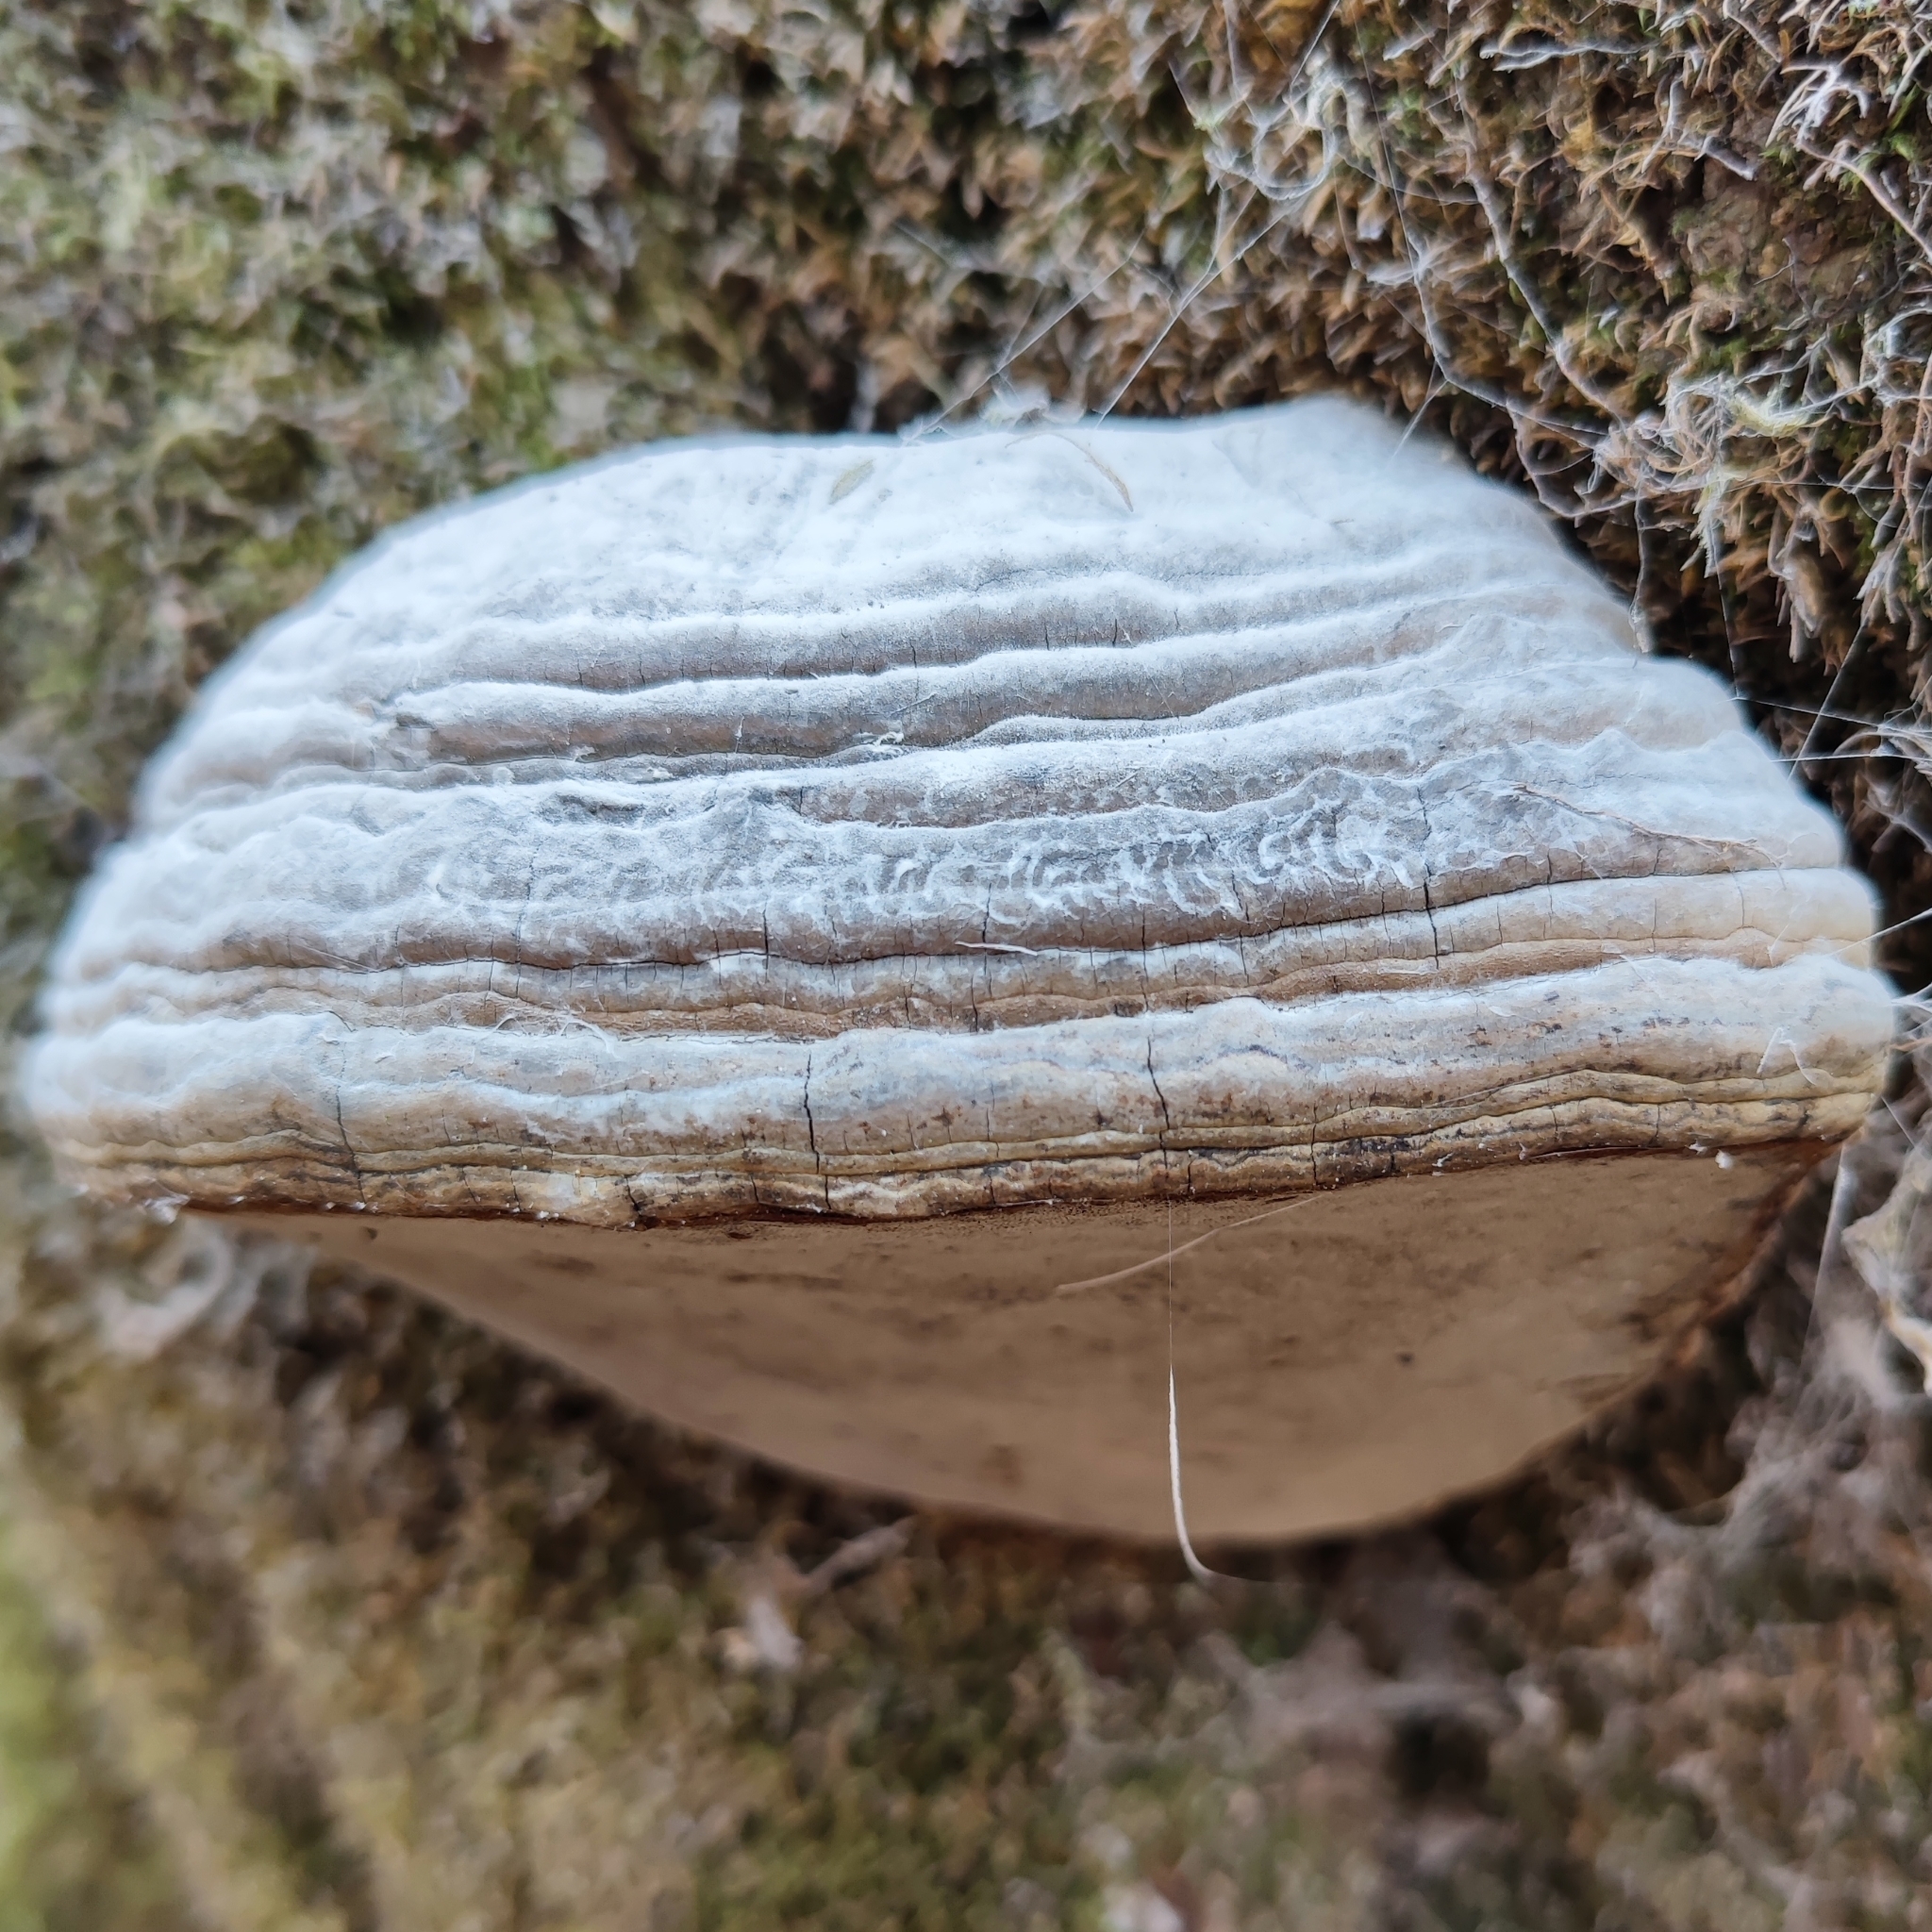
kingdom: Fungi
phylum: Basidiomycota
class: Agaricomycetes
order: Polyporales
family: Polyporaceae
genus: Fomes
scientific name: Fomes fomentarius
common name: Hoof fungus
